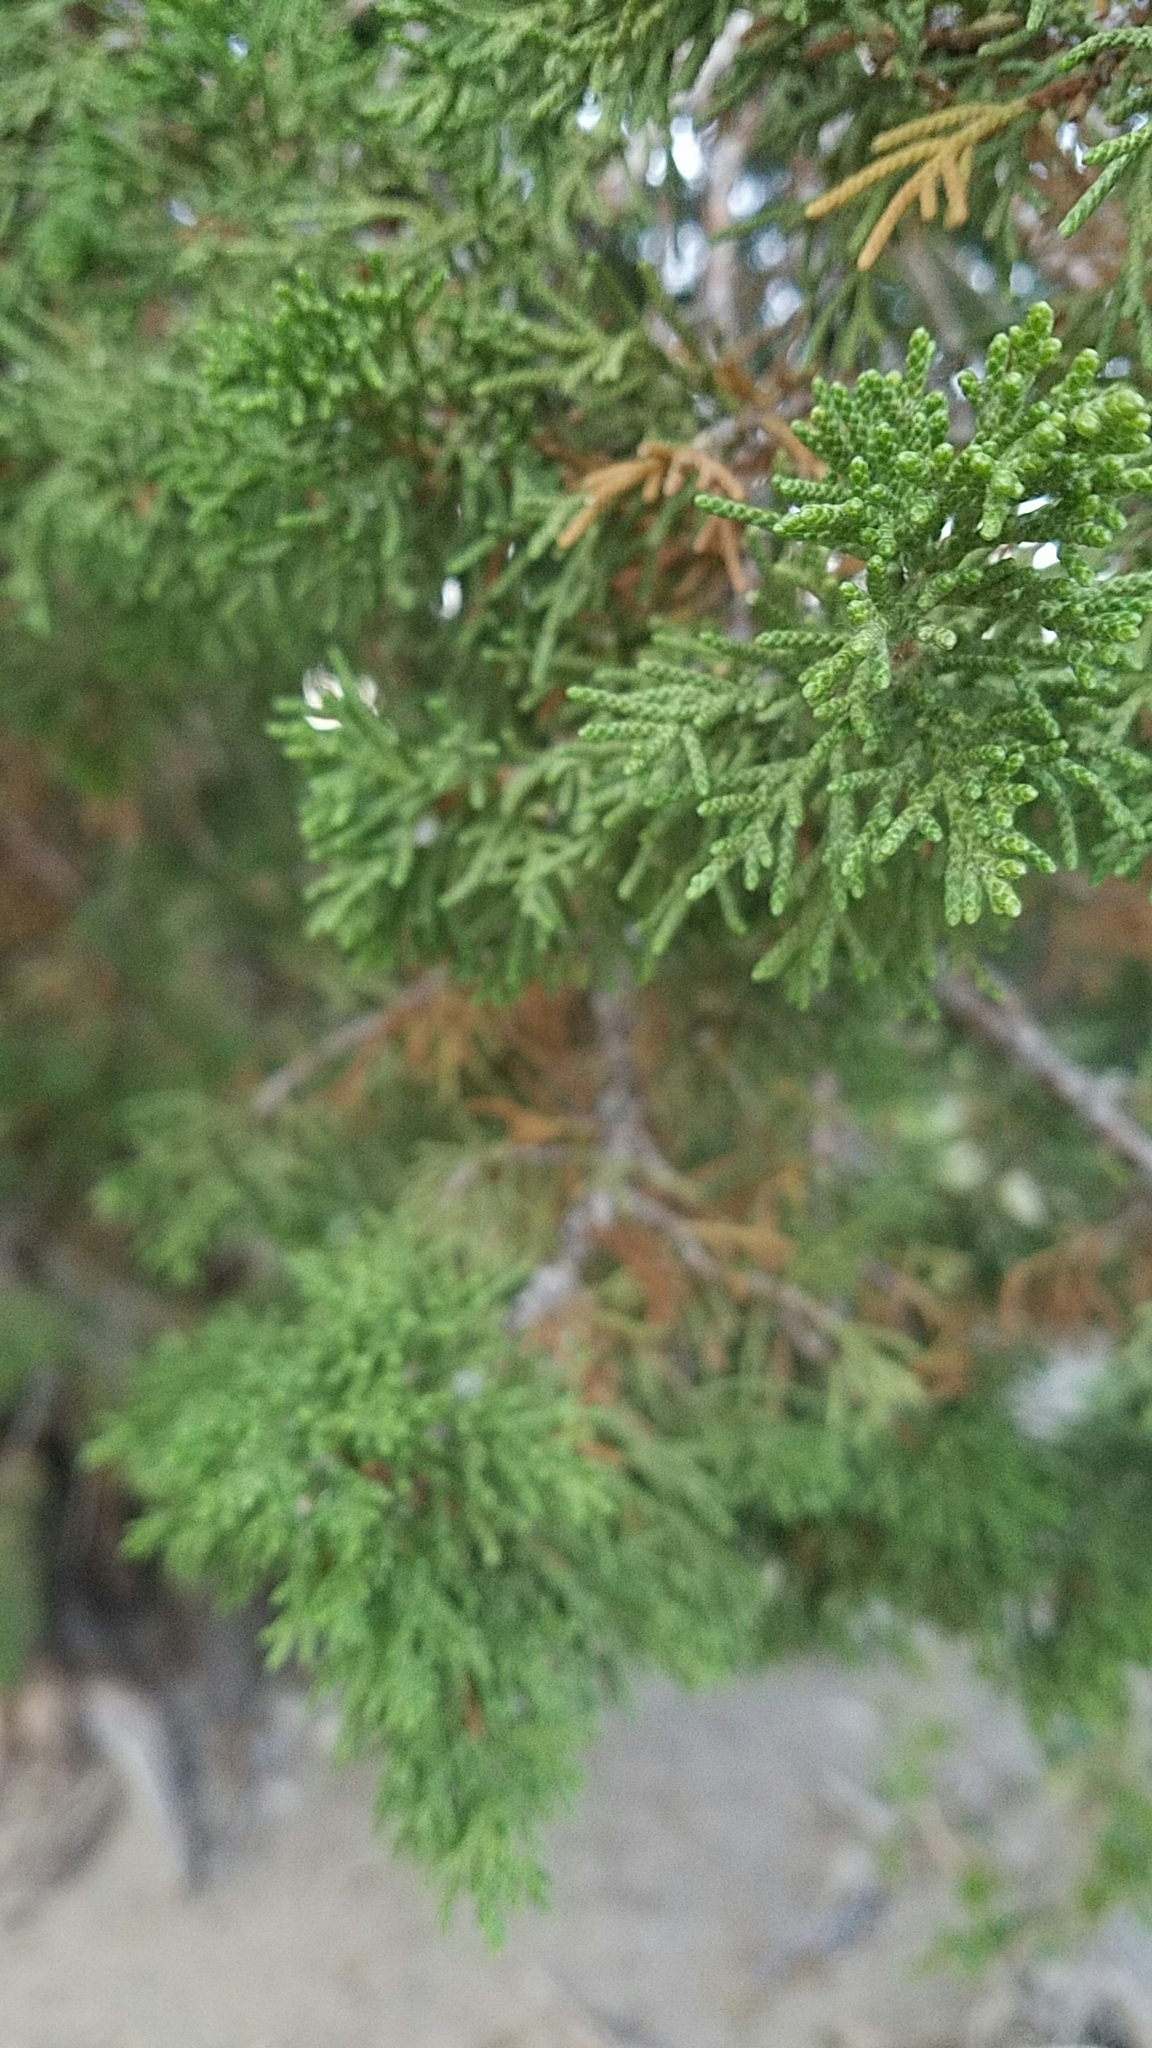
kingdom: Plantae
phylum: Tracheophyta
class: Pinopsida
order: Pinales
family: Cupressaceae
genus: Juniperus
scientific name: Juniperus osteosperma
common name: Utah juniper
